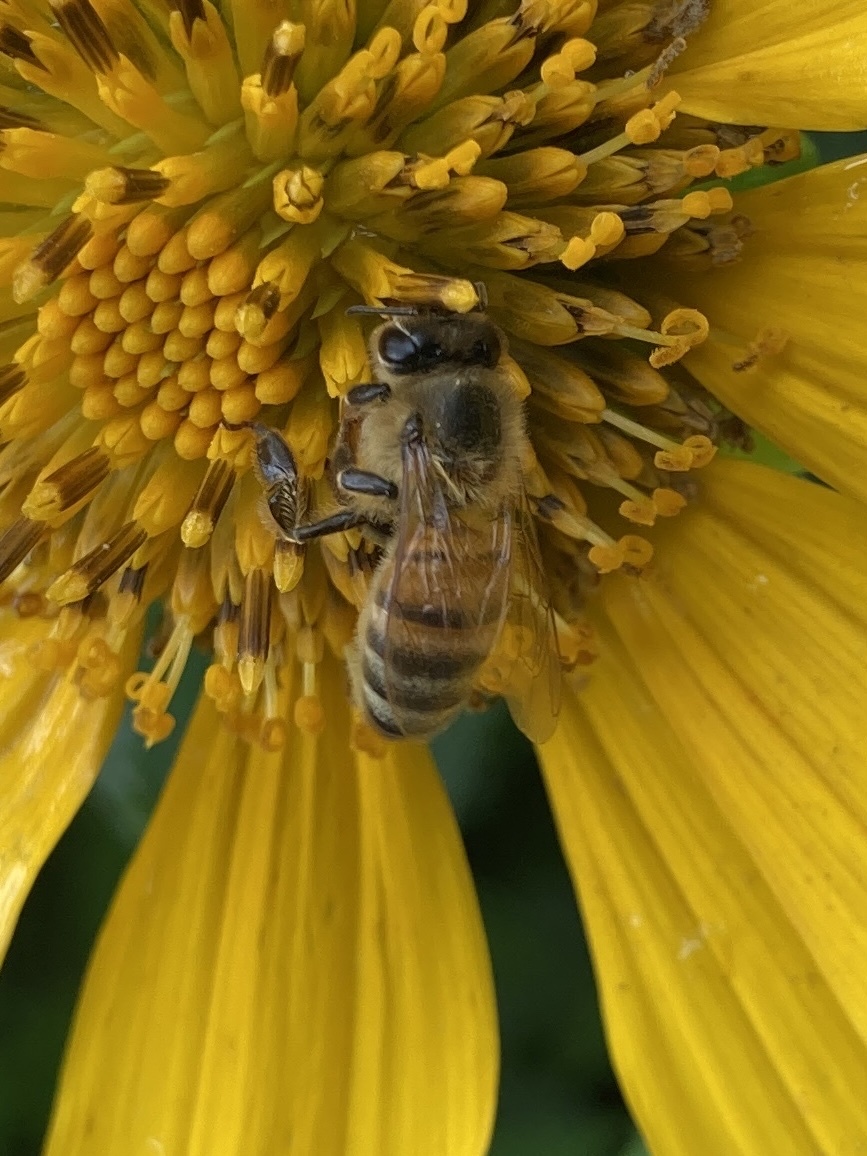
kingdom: Animalia
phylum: Arthropoda
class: Insecta
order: Hymenoptera
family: Apidae
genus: Apis
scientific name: Apis mellifera
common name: Honey bee
